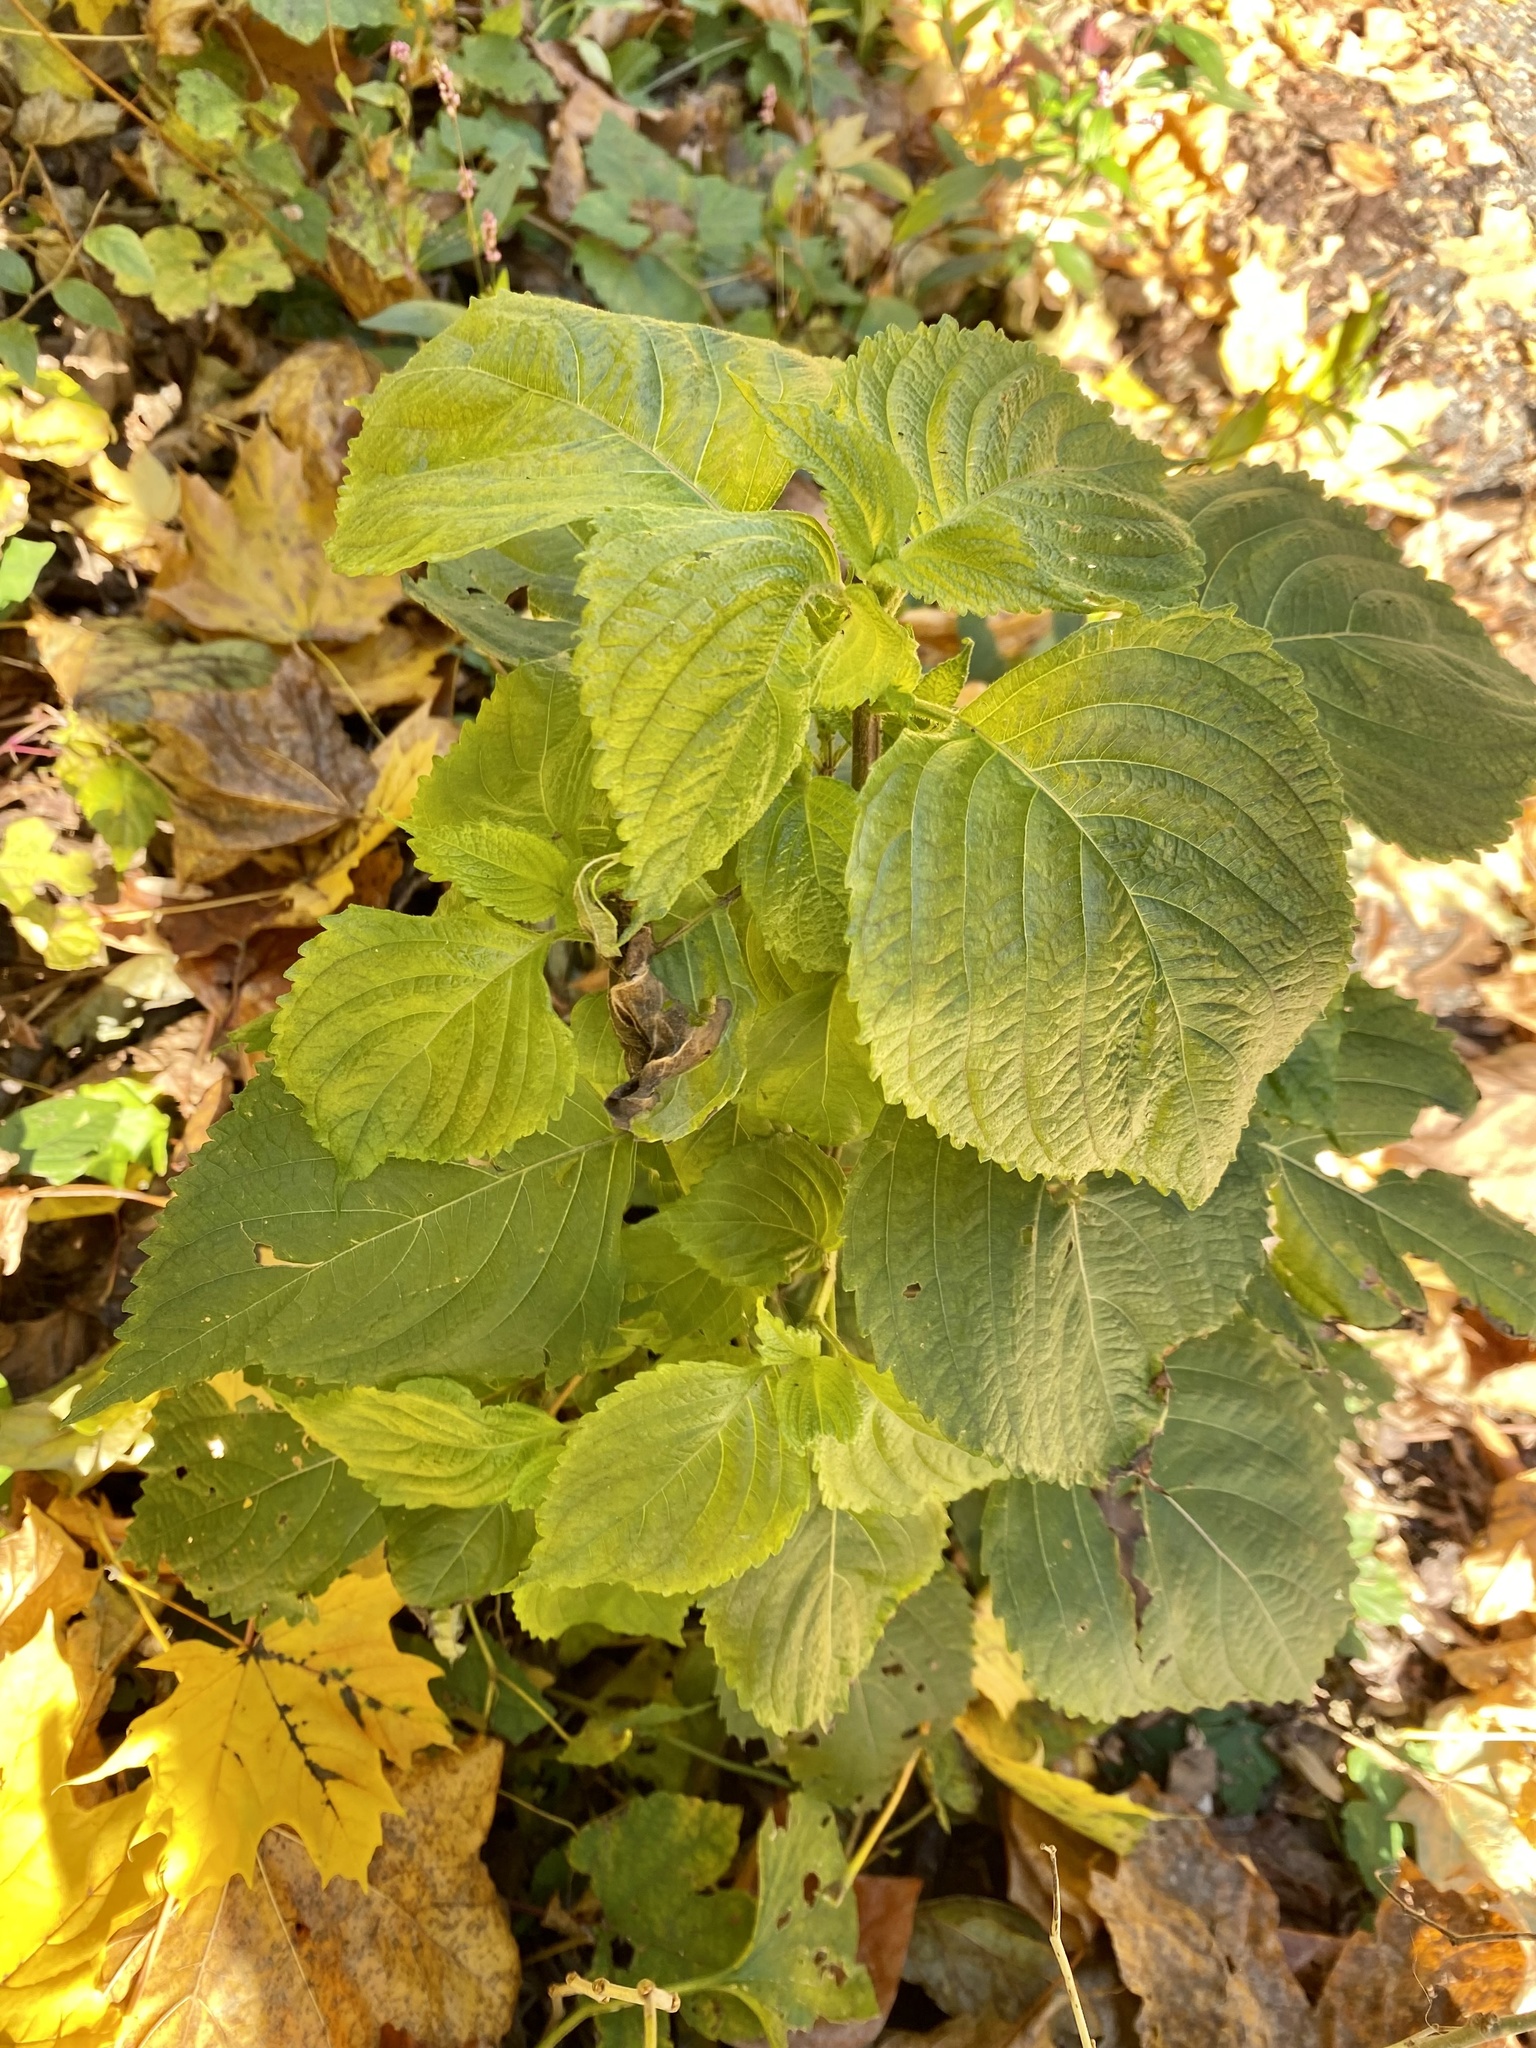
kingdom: Plantae
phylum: Tracheophyta
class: Magnoliopsida
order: Lamiales
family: Lamiaceae
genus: Perilla
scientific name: Perilla frutescens
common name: Perilla
